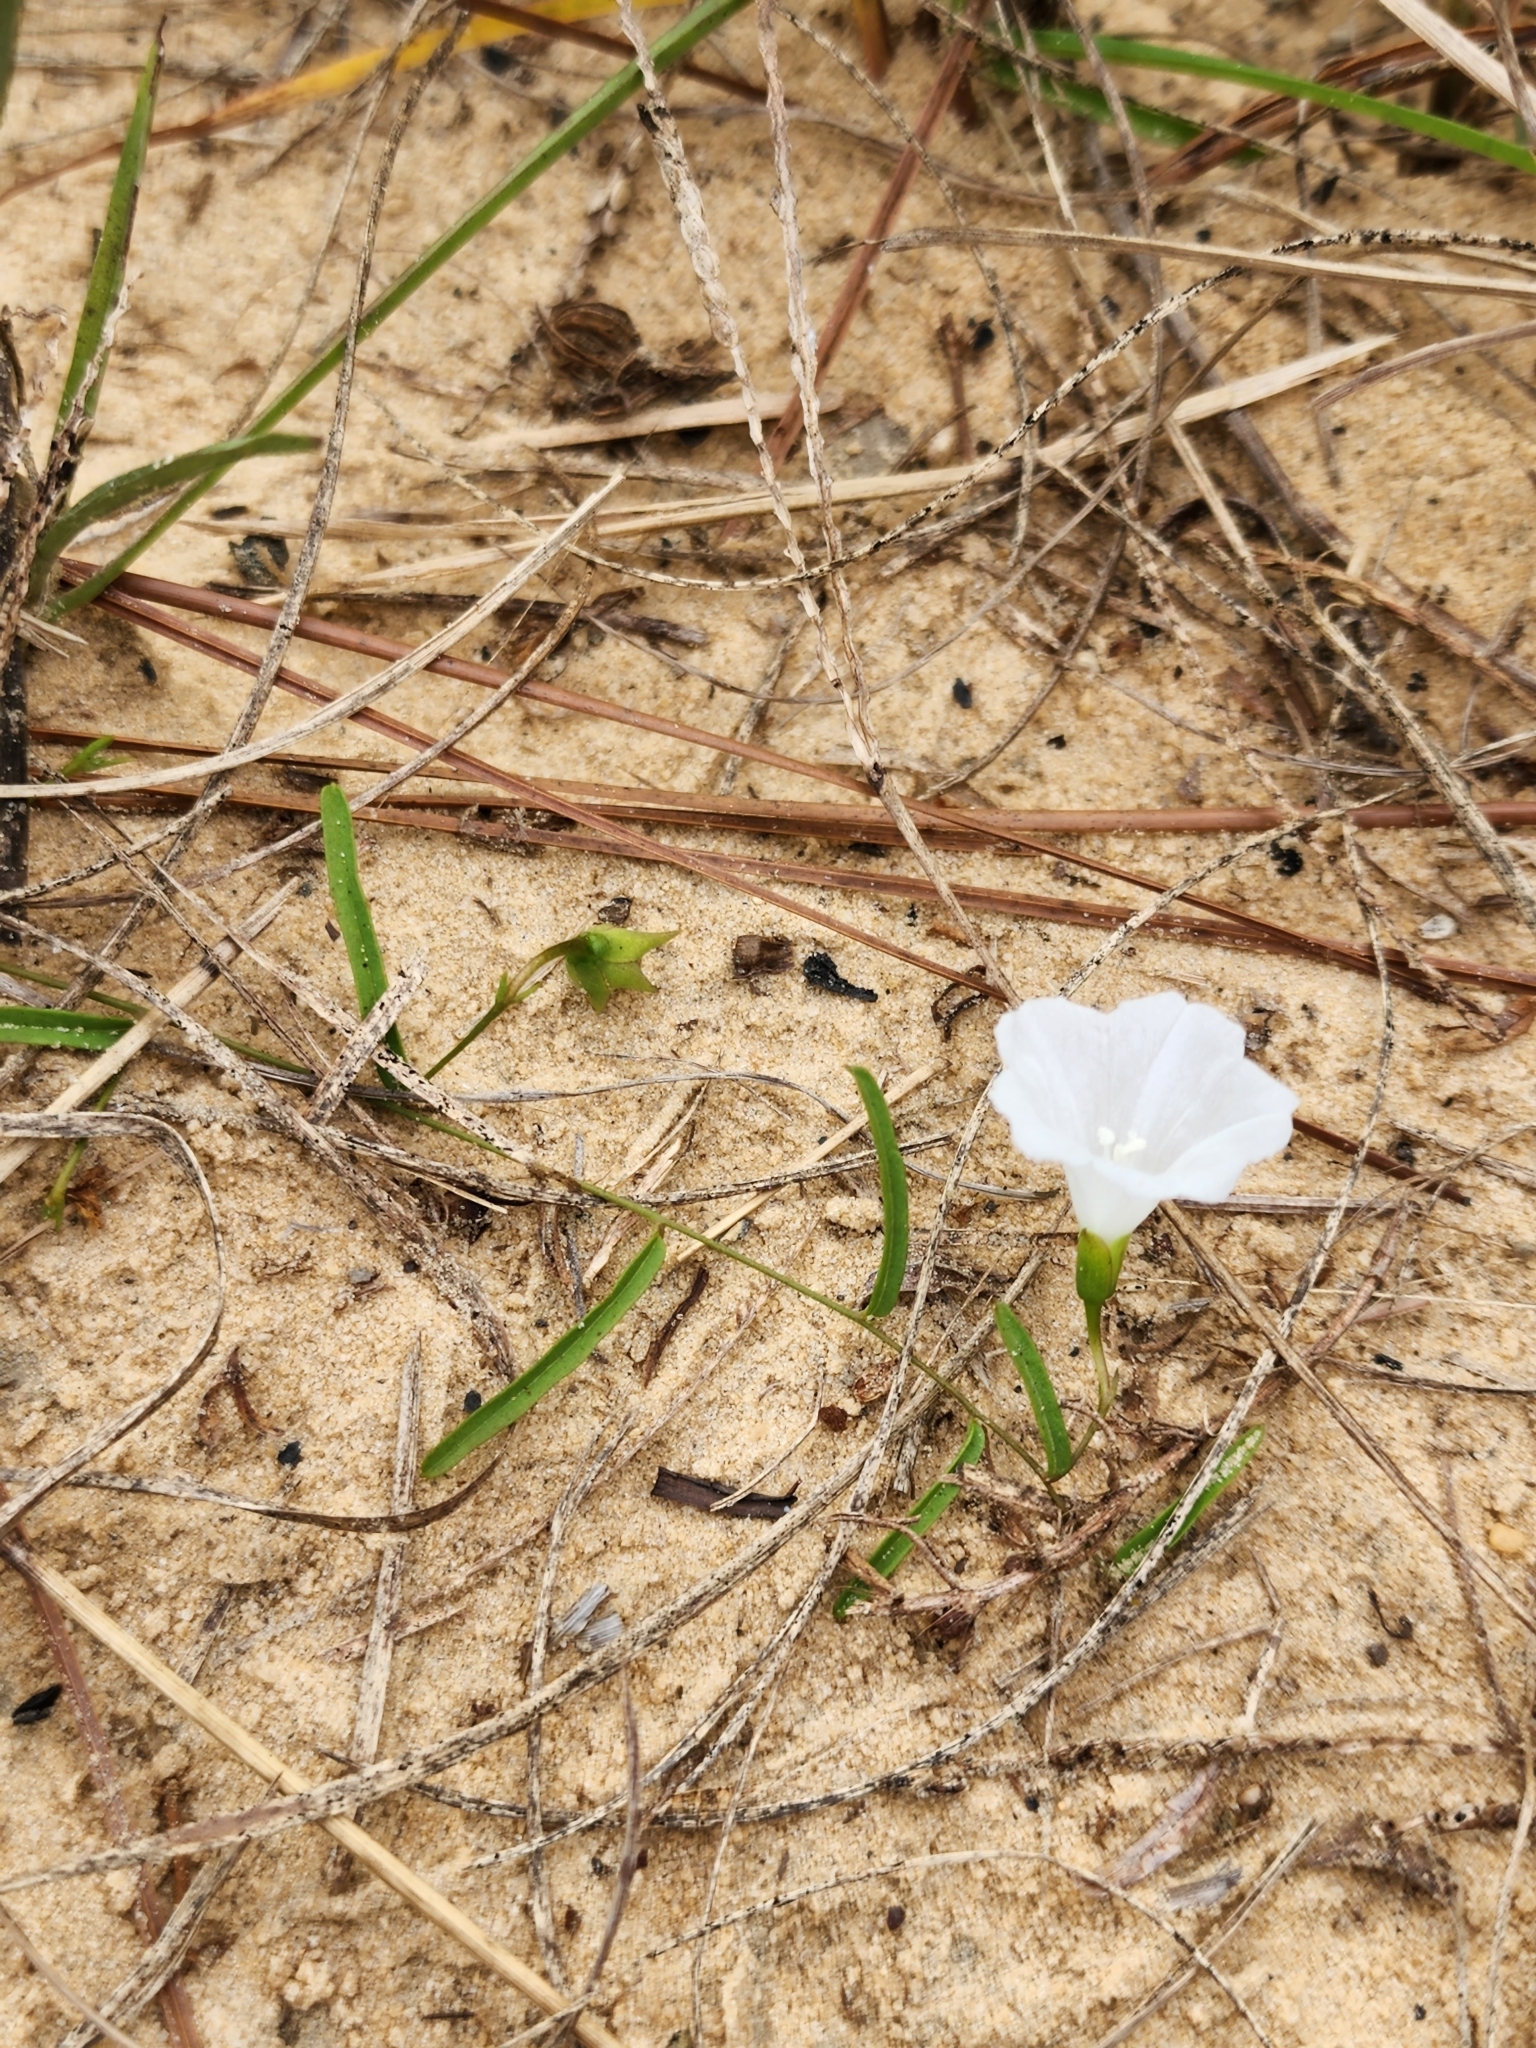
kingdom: Plantae
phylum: Tracheophyta
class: Magnoliopsida
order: Solanales
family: Convolvulaceae
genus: Stylisma
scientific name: Stylisma patens
